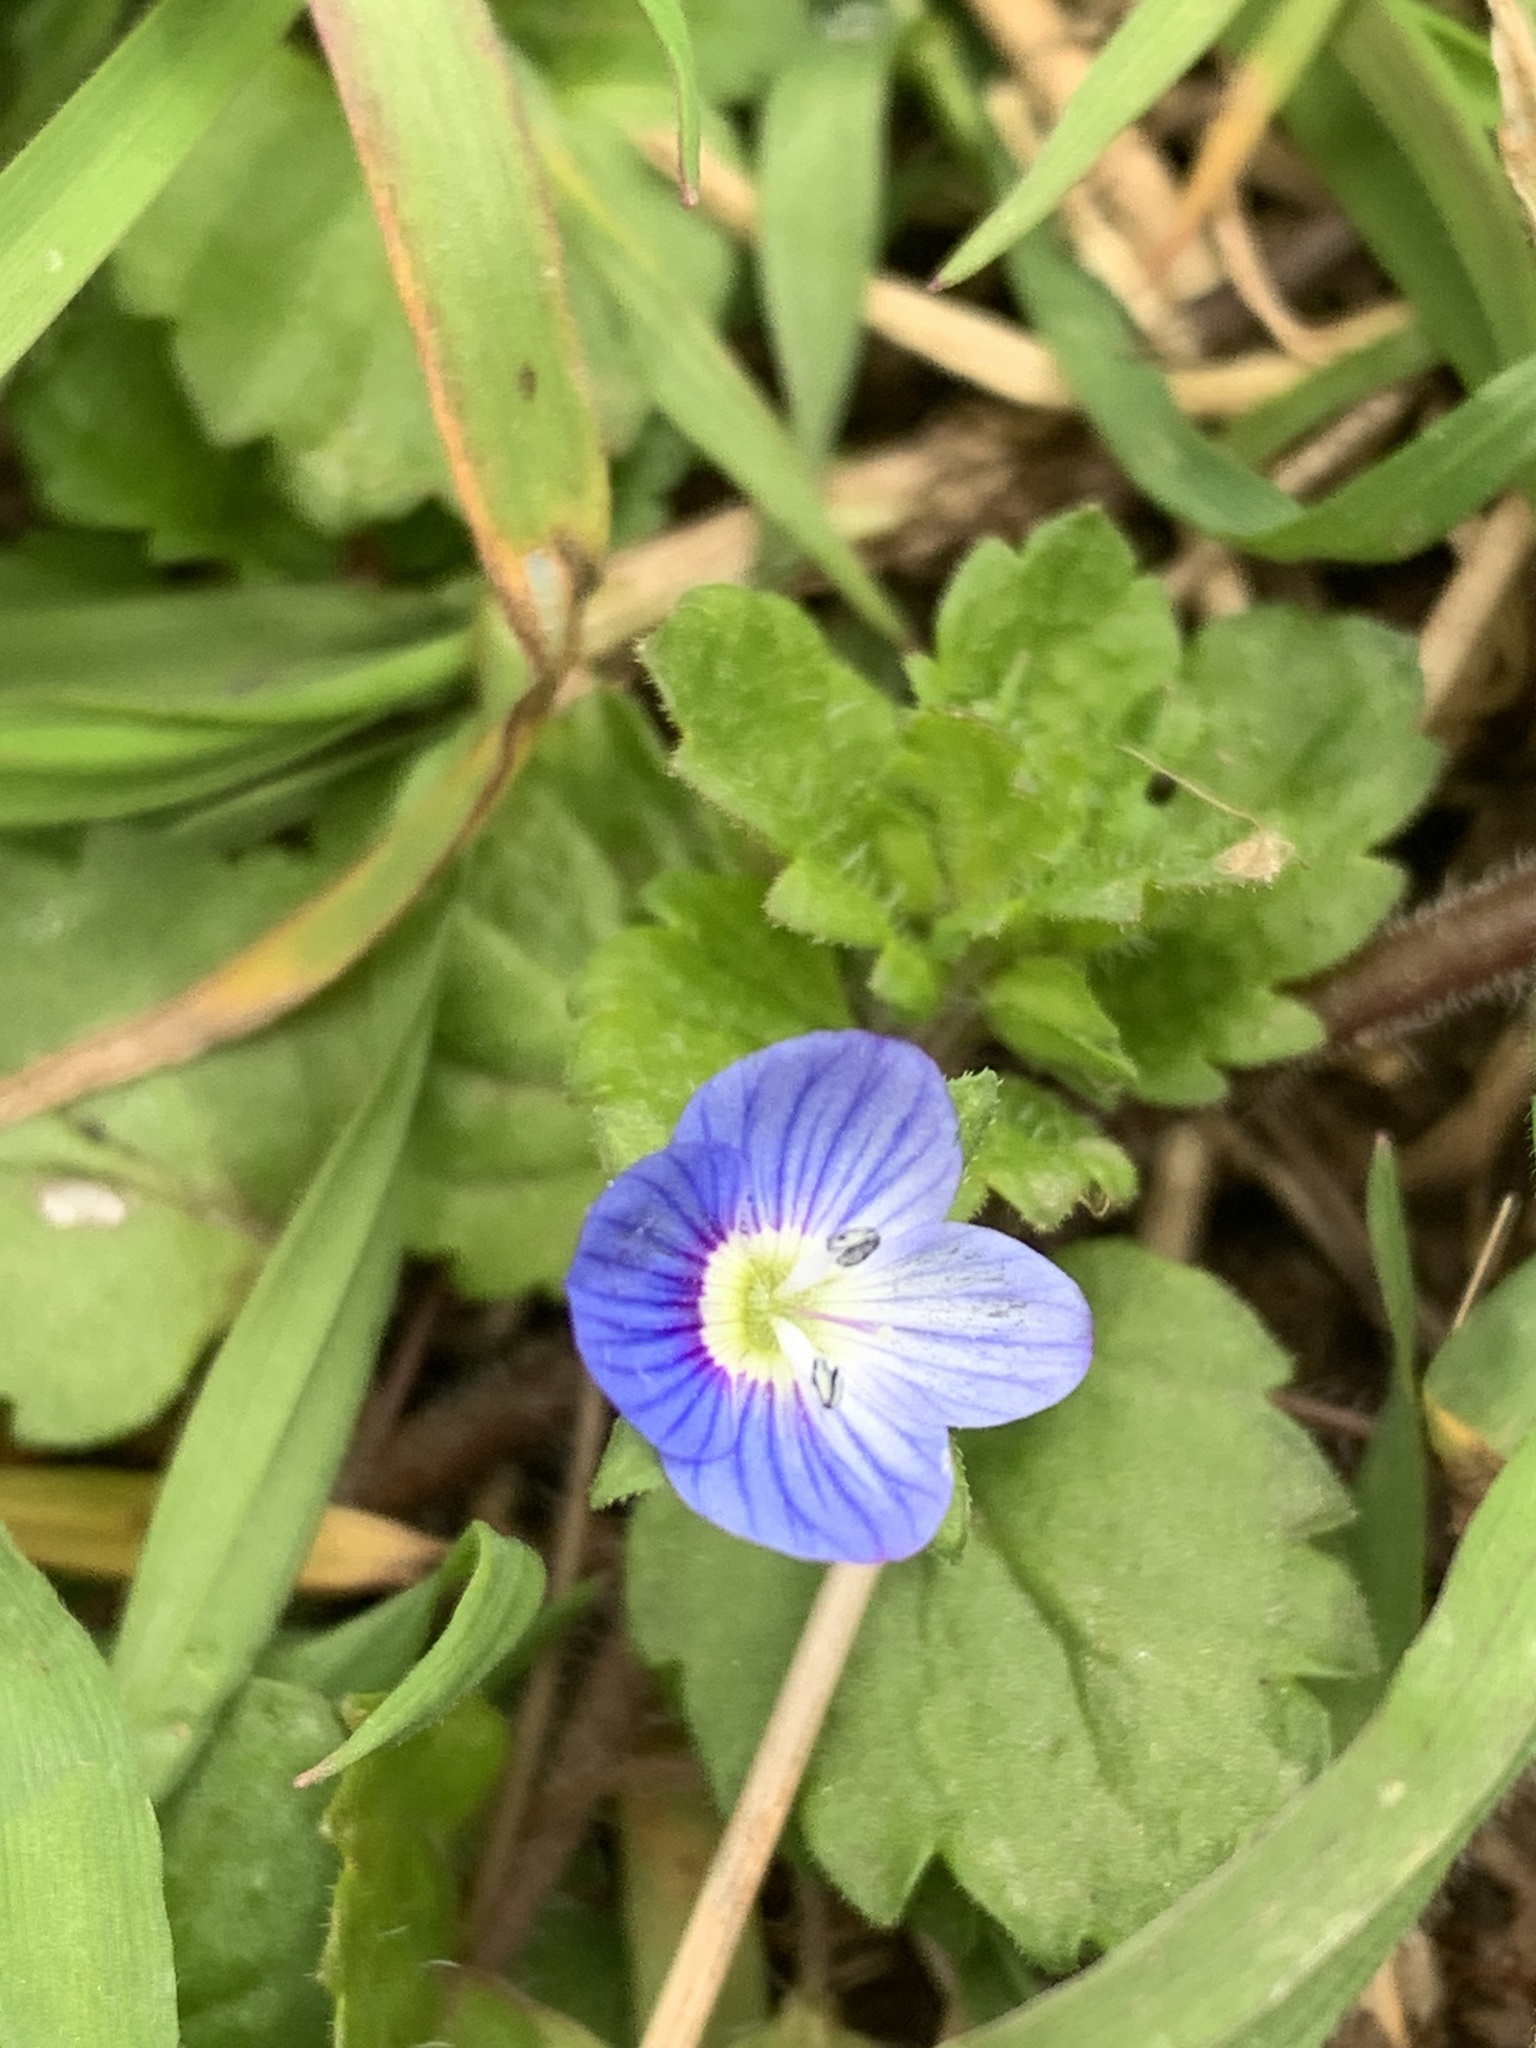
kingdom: Plantae
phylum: Tracheophyta
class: Magnoliopsida
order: Lamiales
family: Plantaginaceae
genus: Veronica
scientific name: Veronica persica
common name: Common field-speedwell
